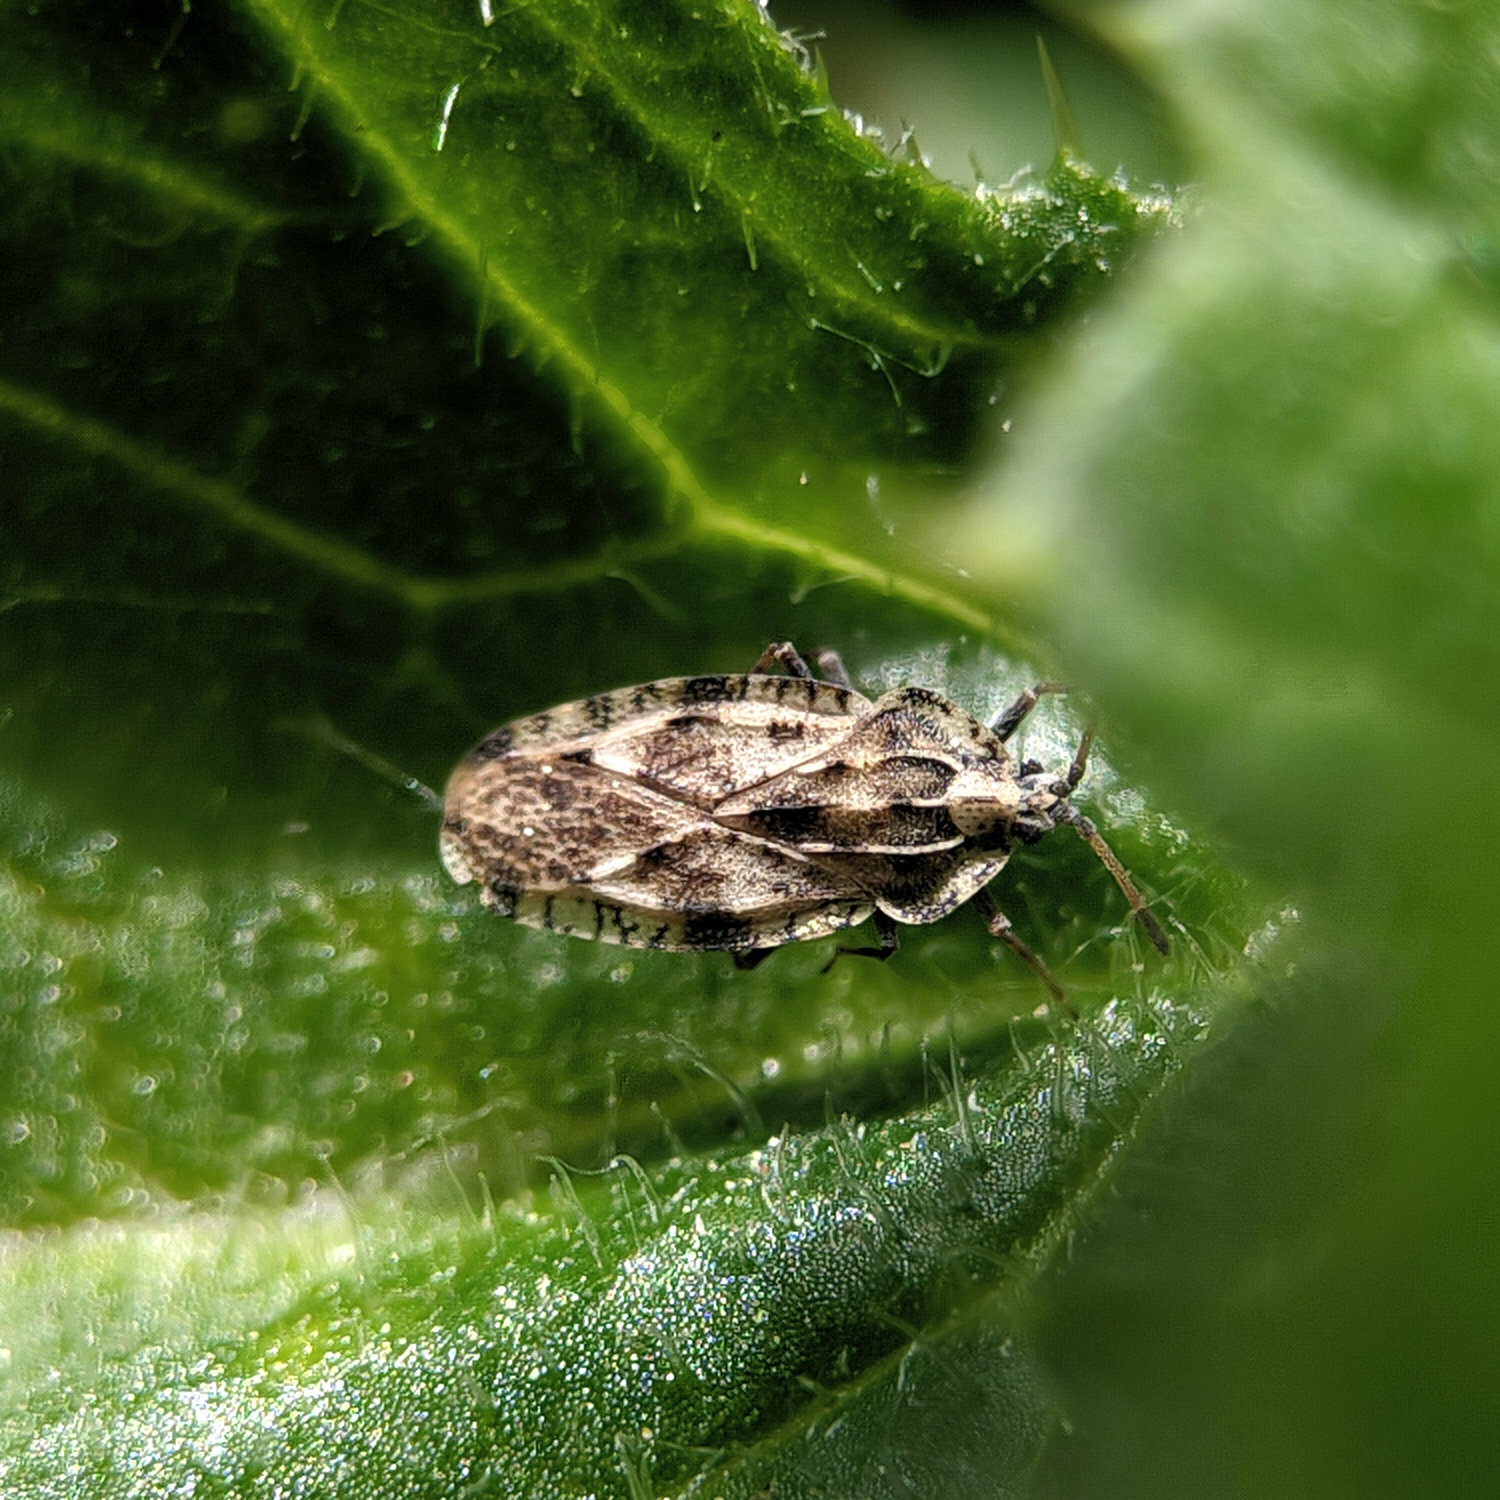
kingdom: Animalia
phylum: Arthropoda
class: Insecta
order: Hemiptera
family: Tingidae
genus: Tingis
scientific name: Tingis cardui
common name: Spear thistle lacebug
